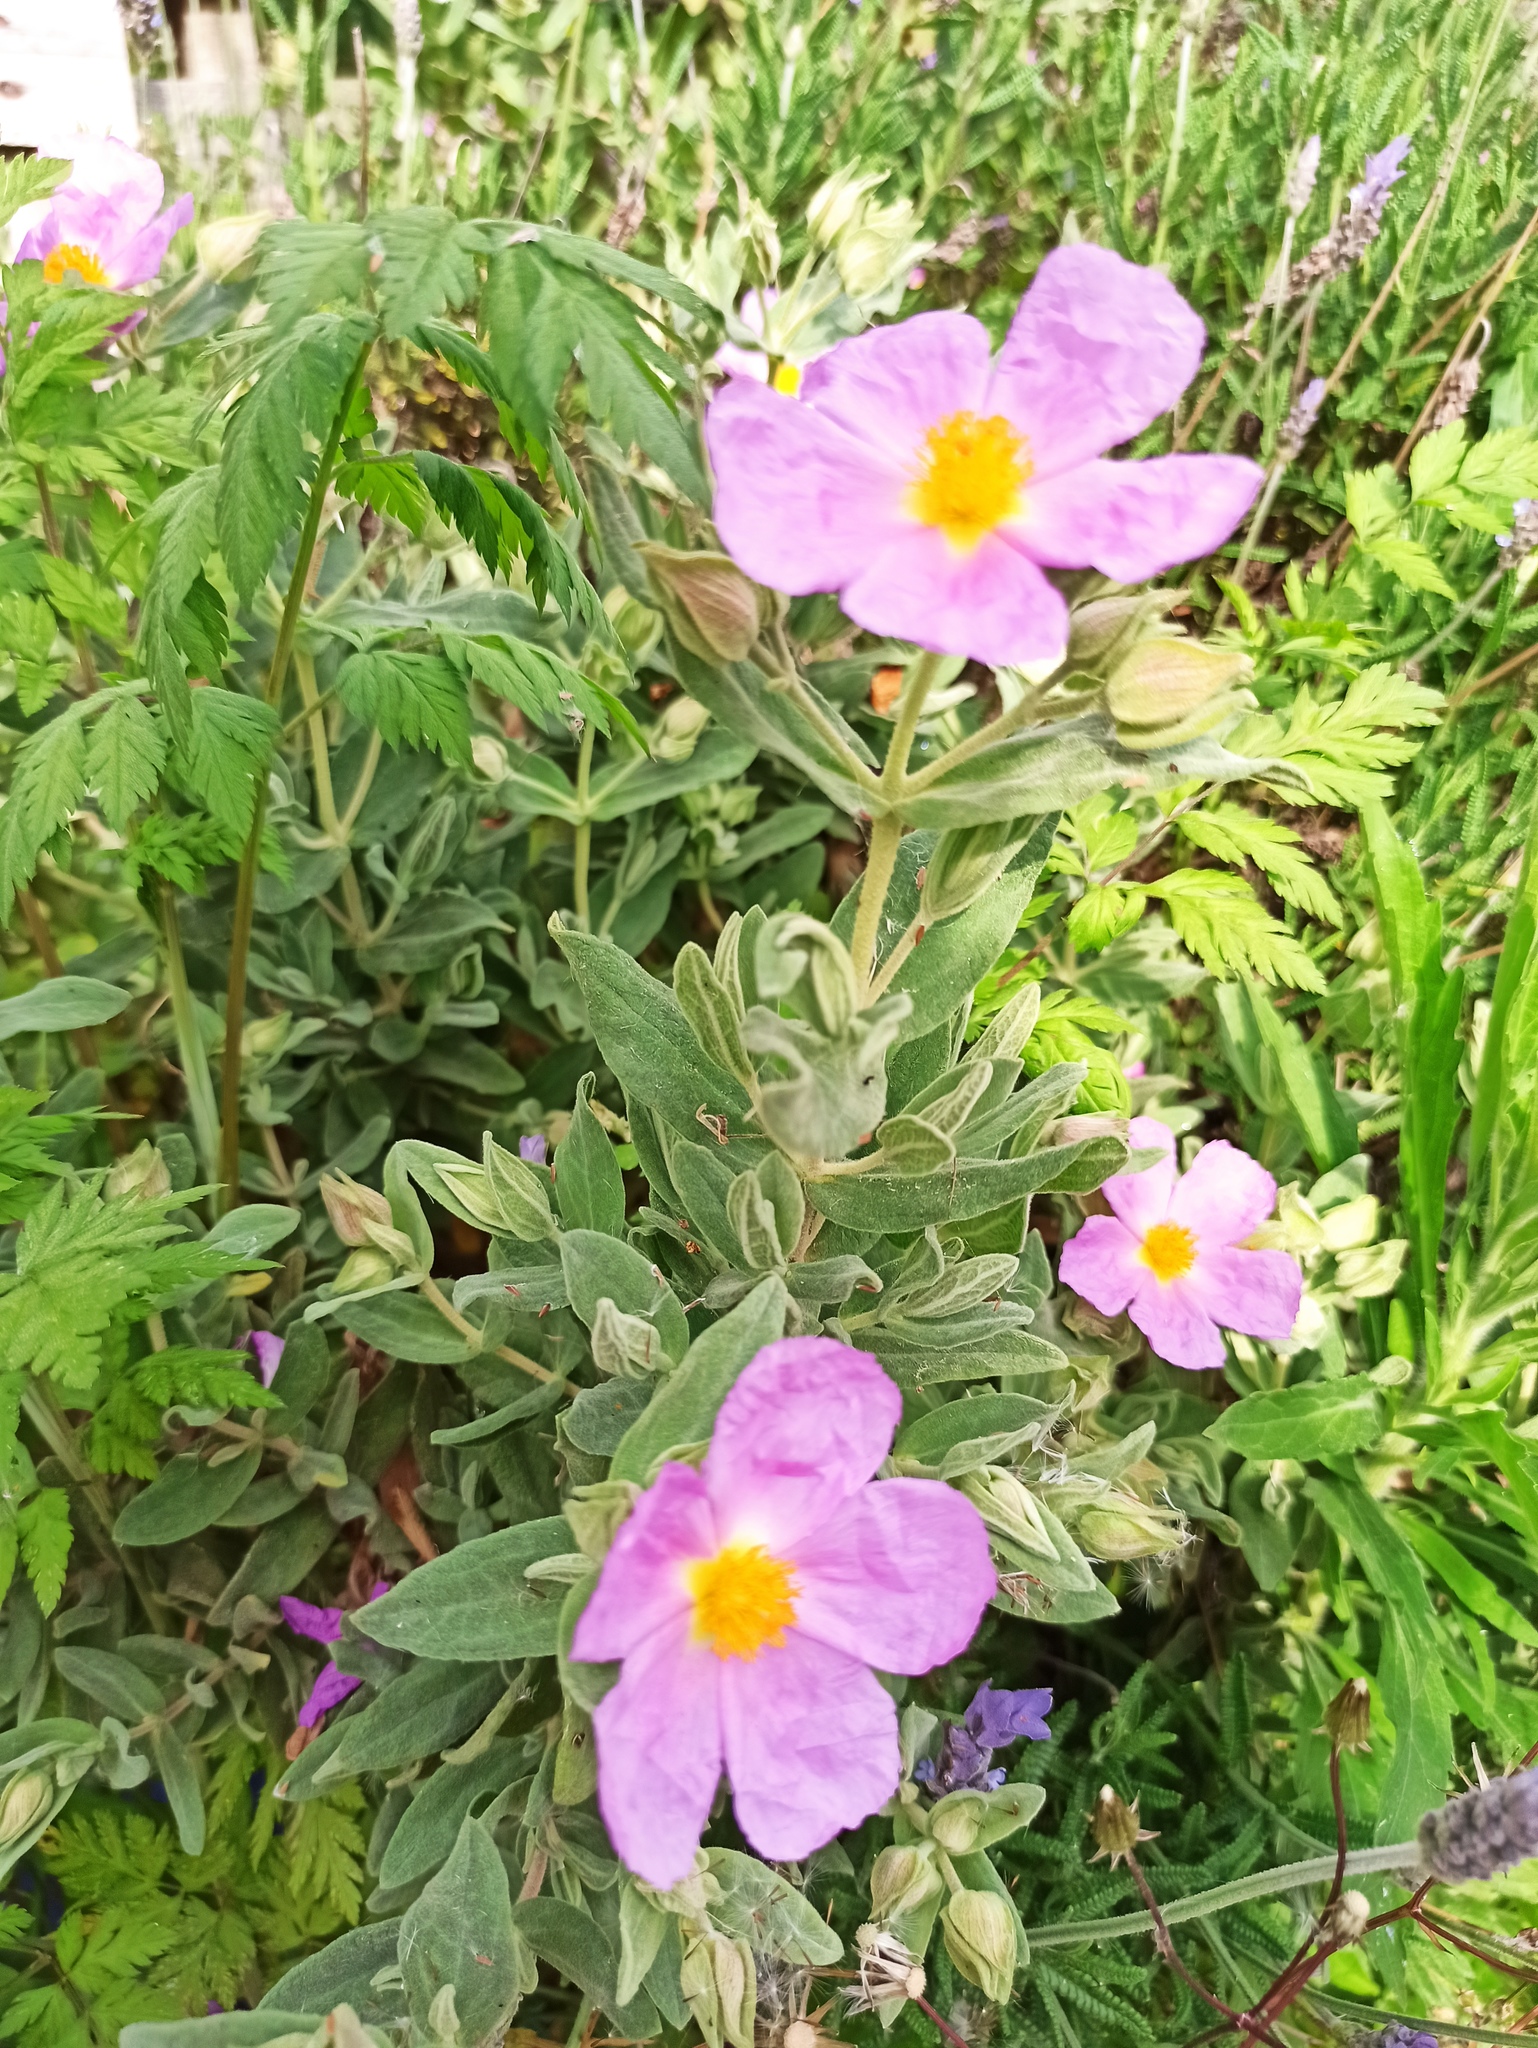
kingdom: Plantae
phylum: Tracheophyta
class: Magnoliopsida
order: Malvales
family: Cistaceae
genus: Cistus
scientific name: Cistus albidus
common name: White-leaf rock-rose
